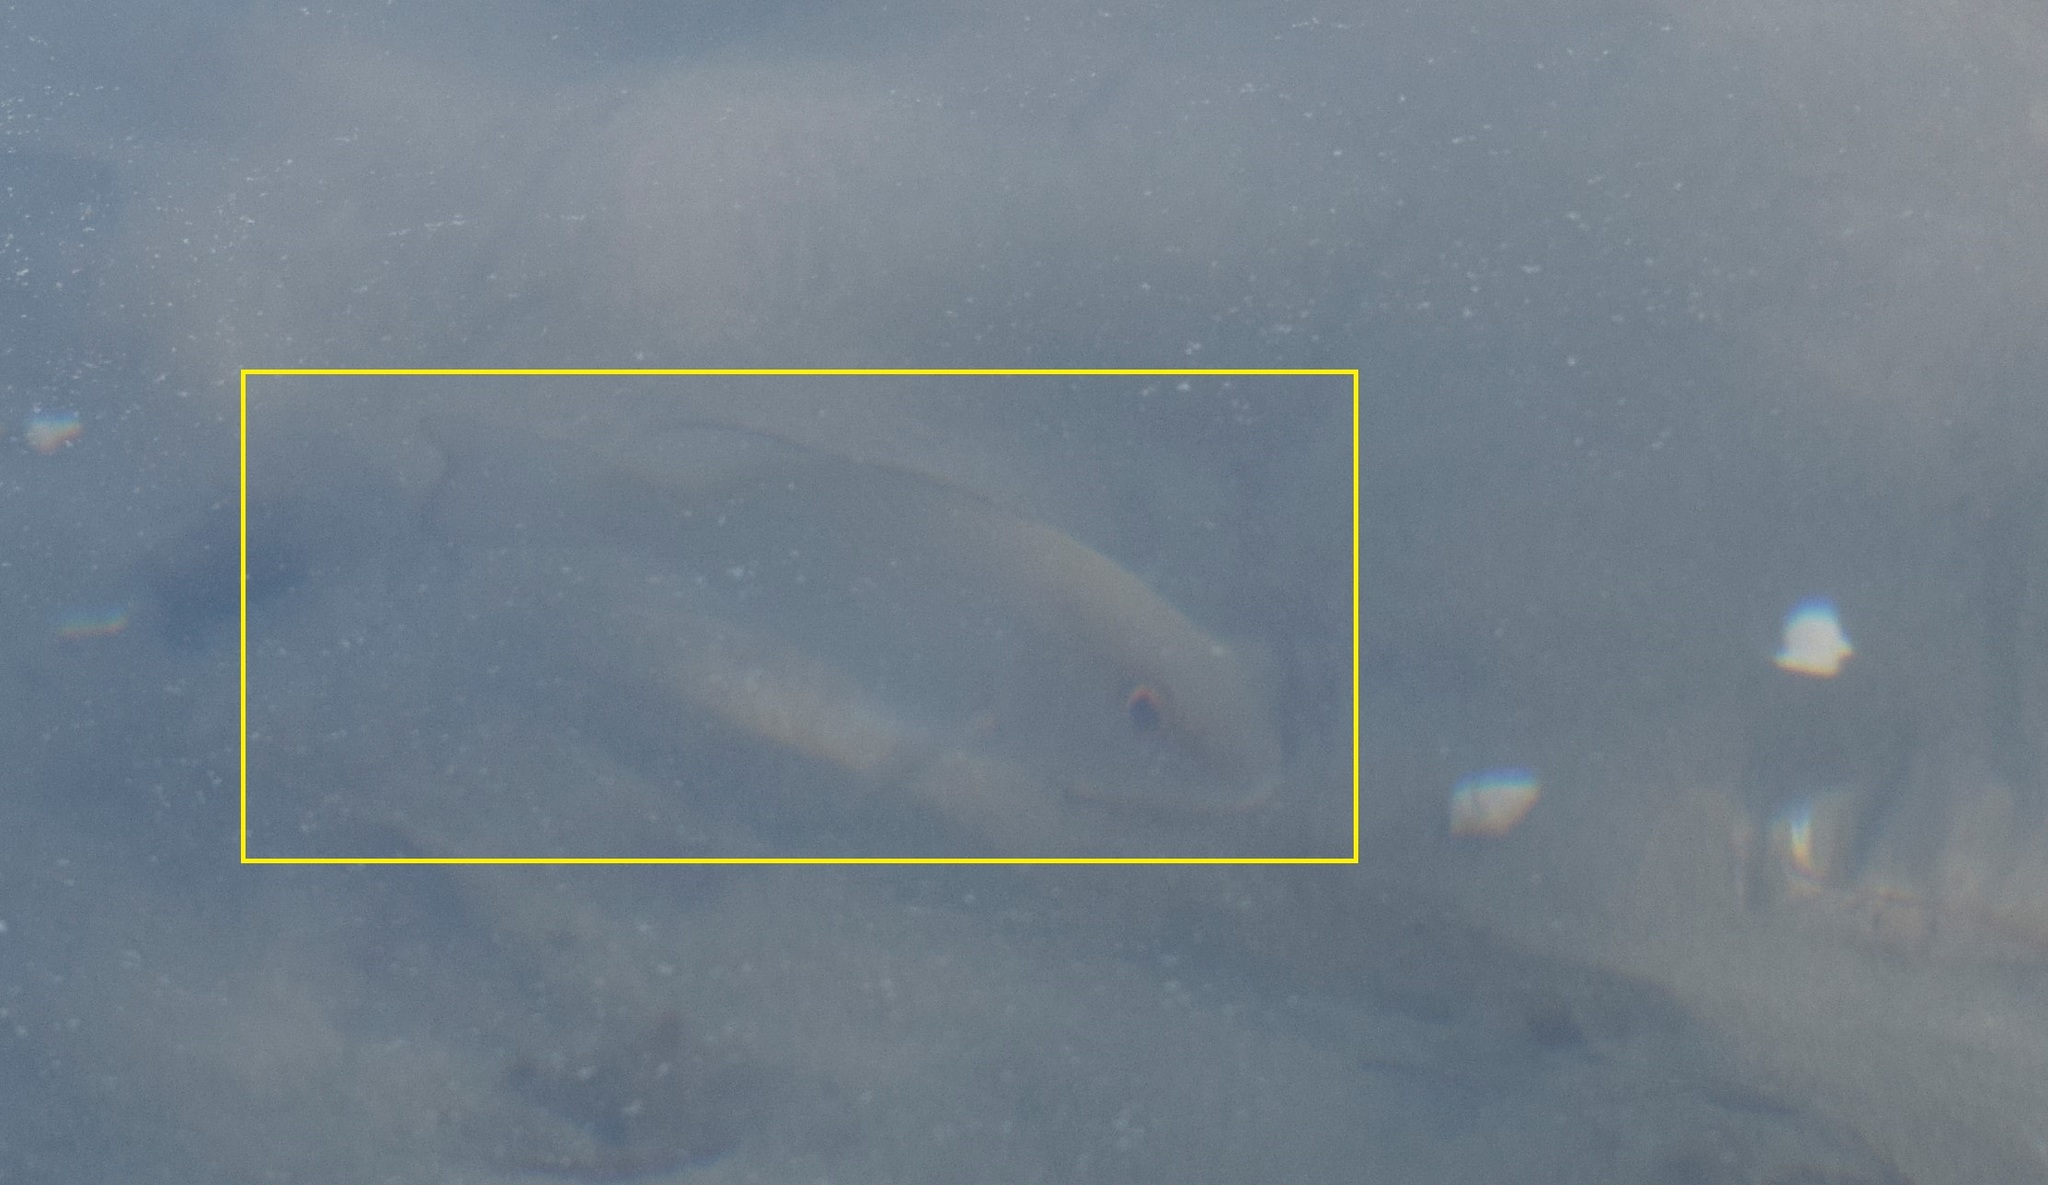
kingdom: Animalia
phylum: Chordata
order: Perciformes
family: Lutjanidae
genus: Lutjanus
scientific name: Lutjanus griseus
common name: Gray snapper
